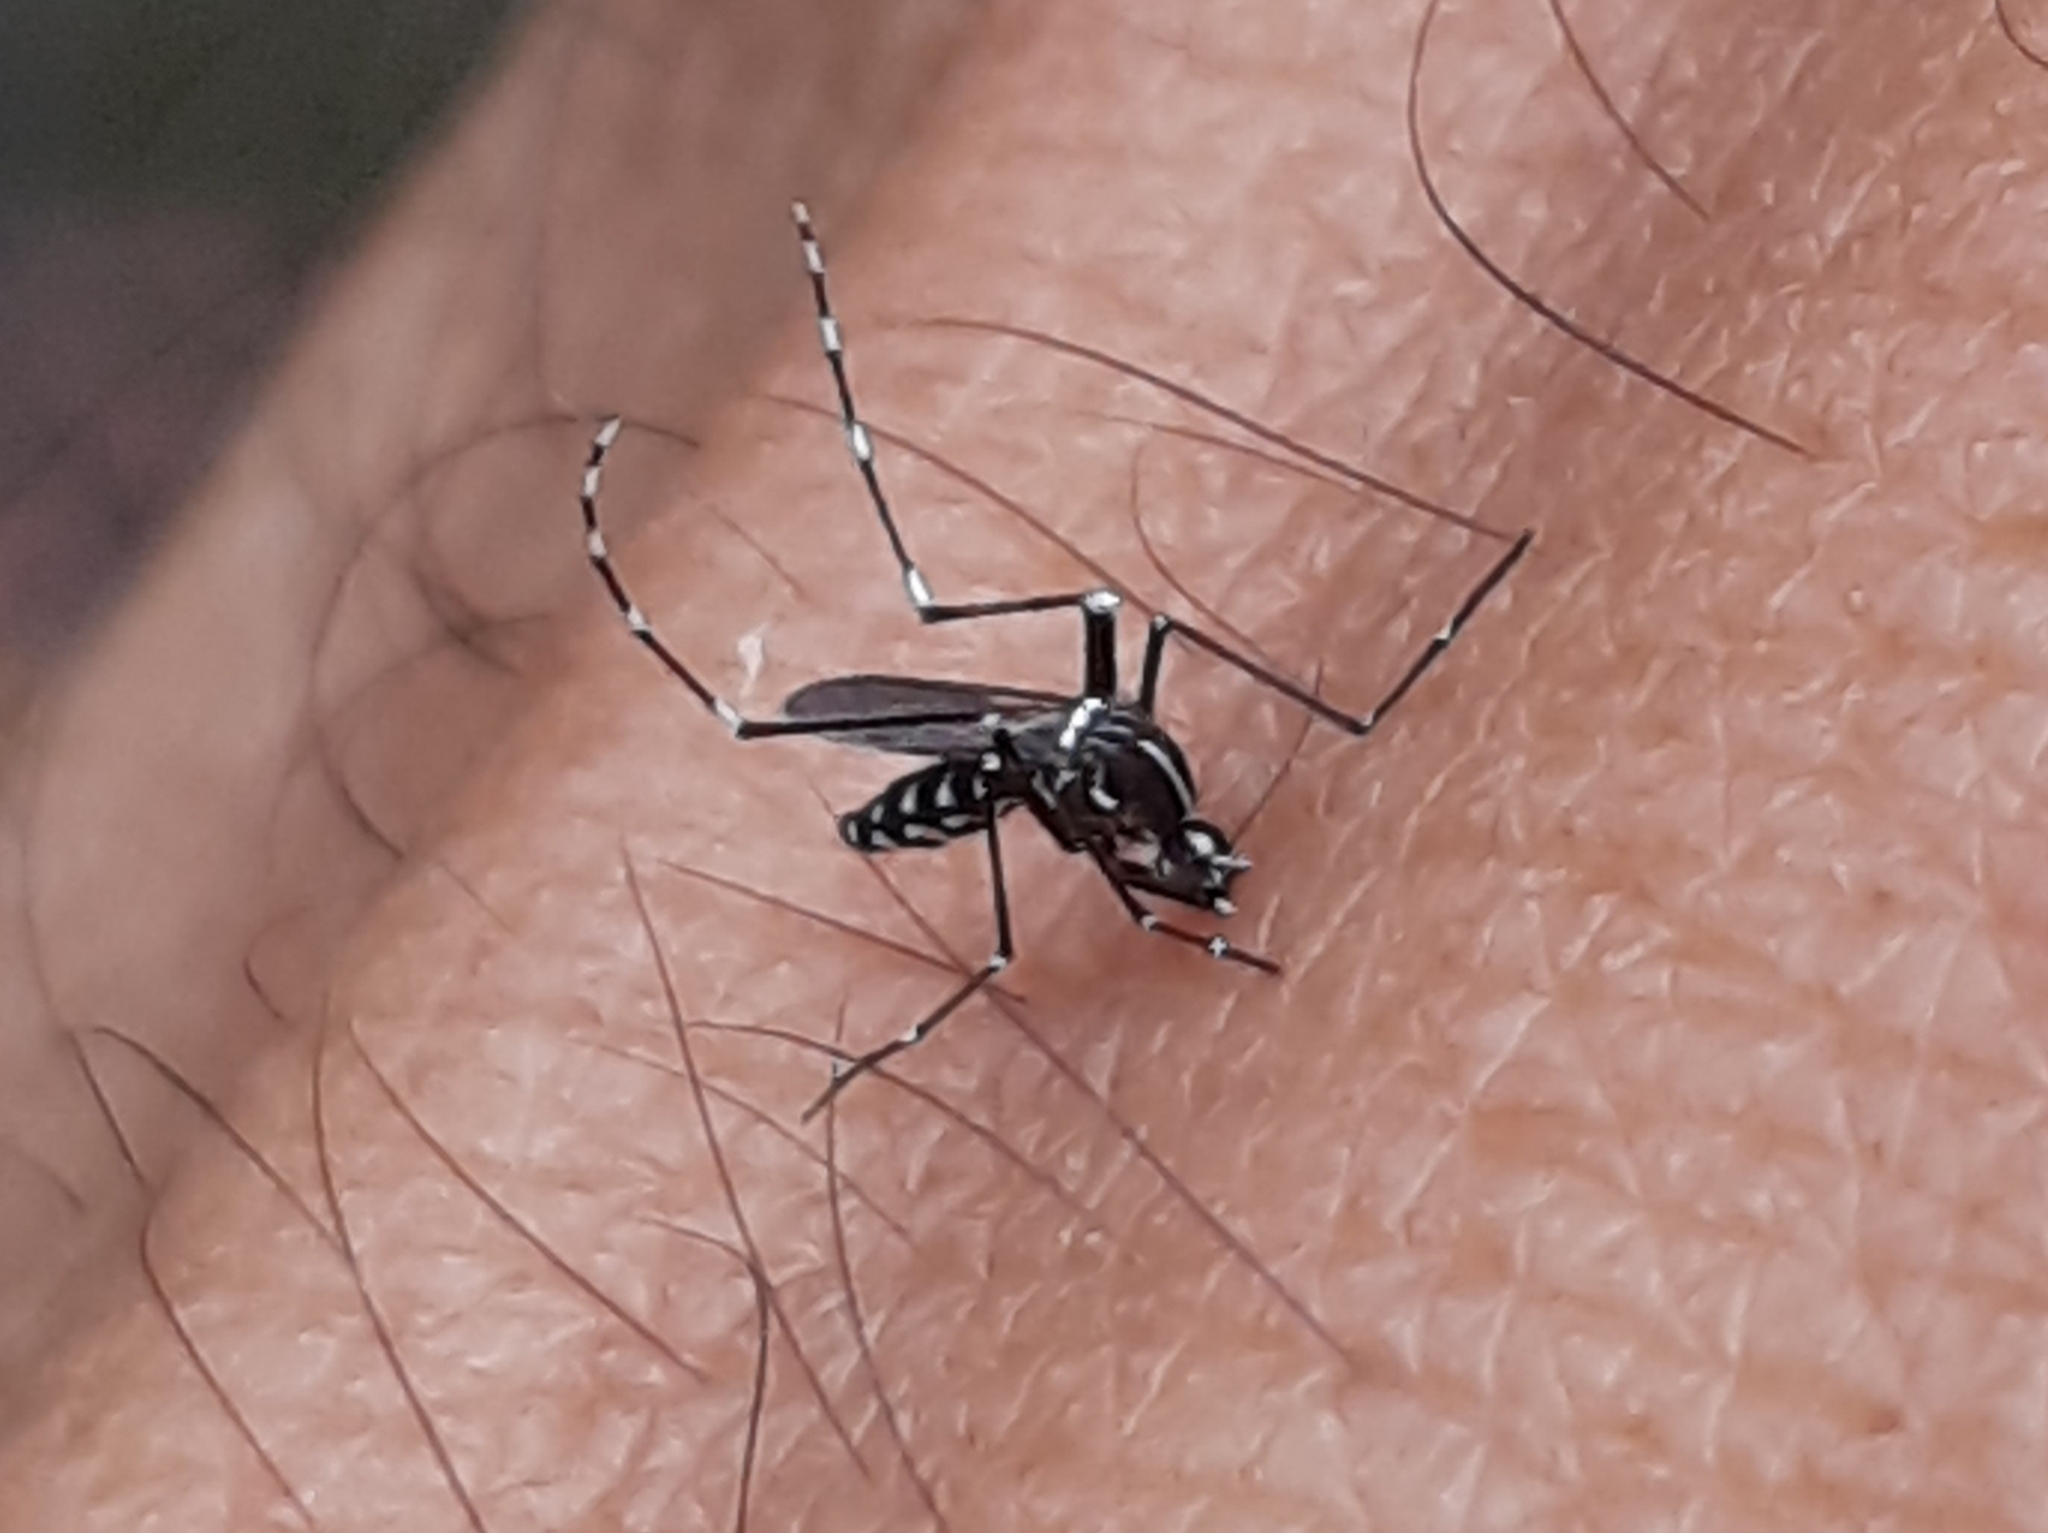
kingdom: Animalia
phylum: Arthropoda
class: Insecta
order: Diptera
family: Culicidae
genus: Aedes
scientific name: Aedes albopictus
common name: Tiger mosquito
